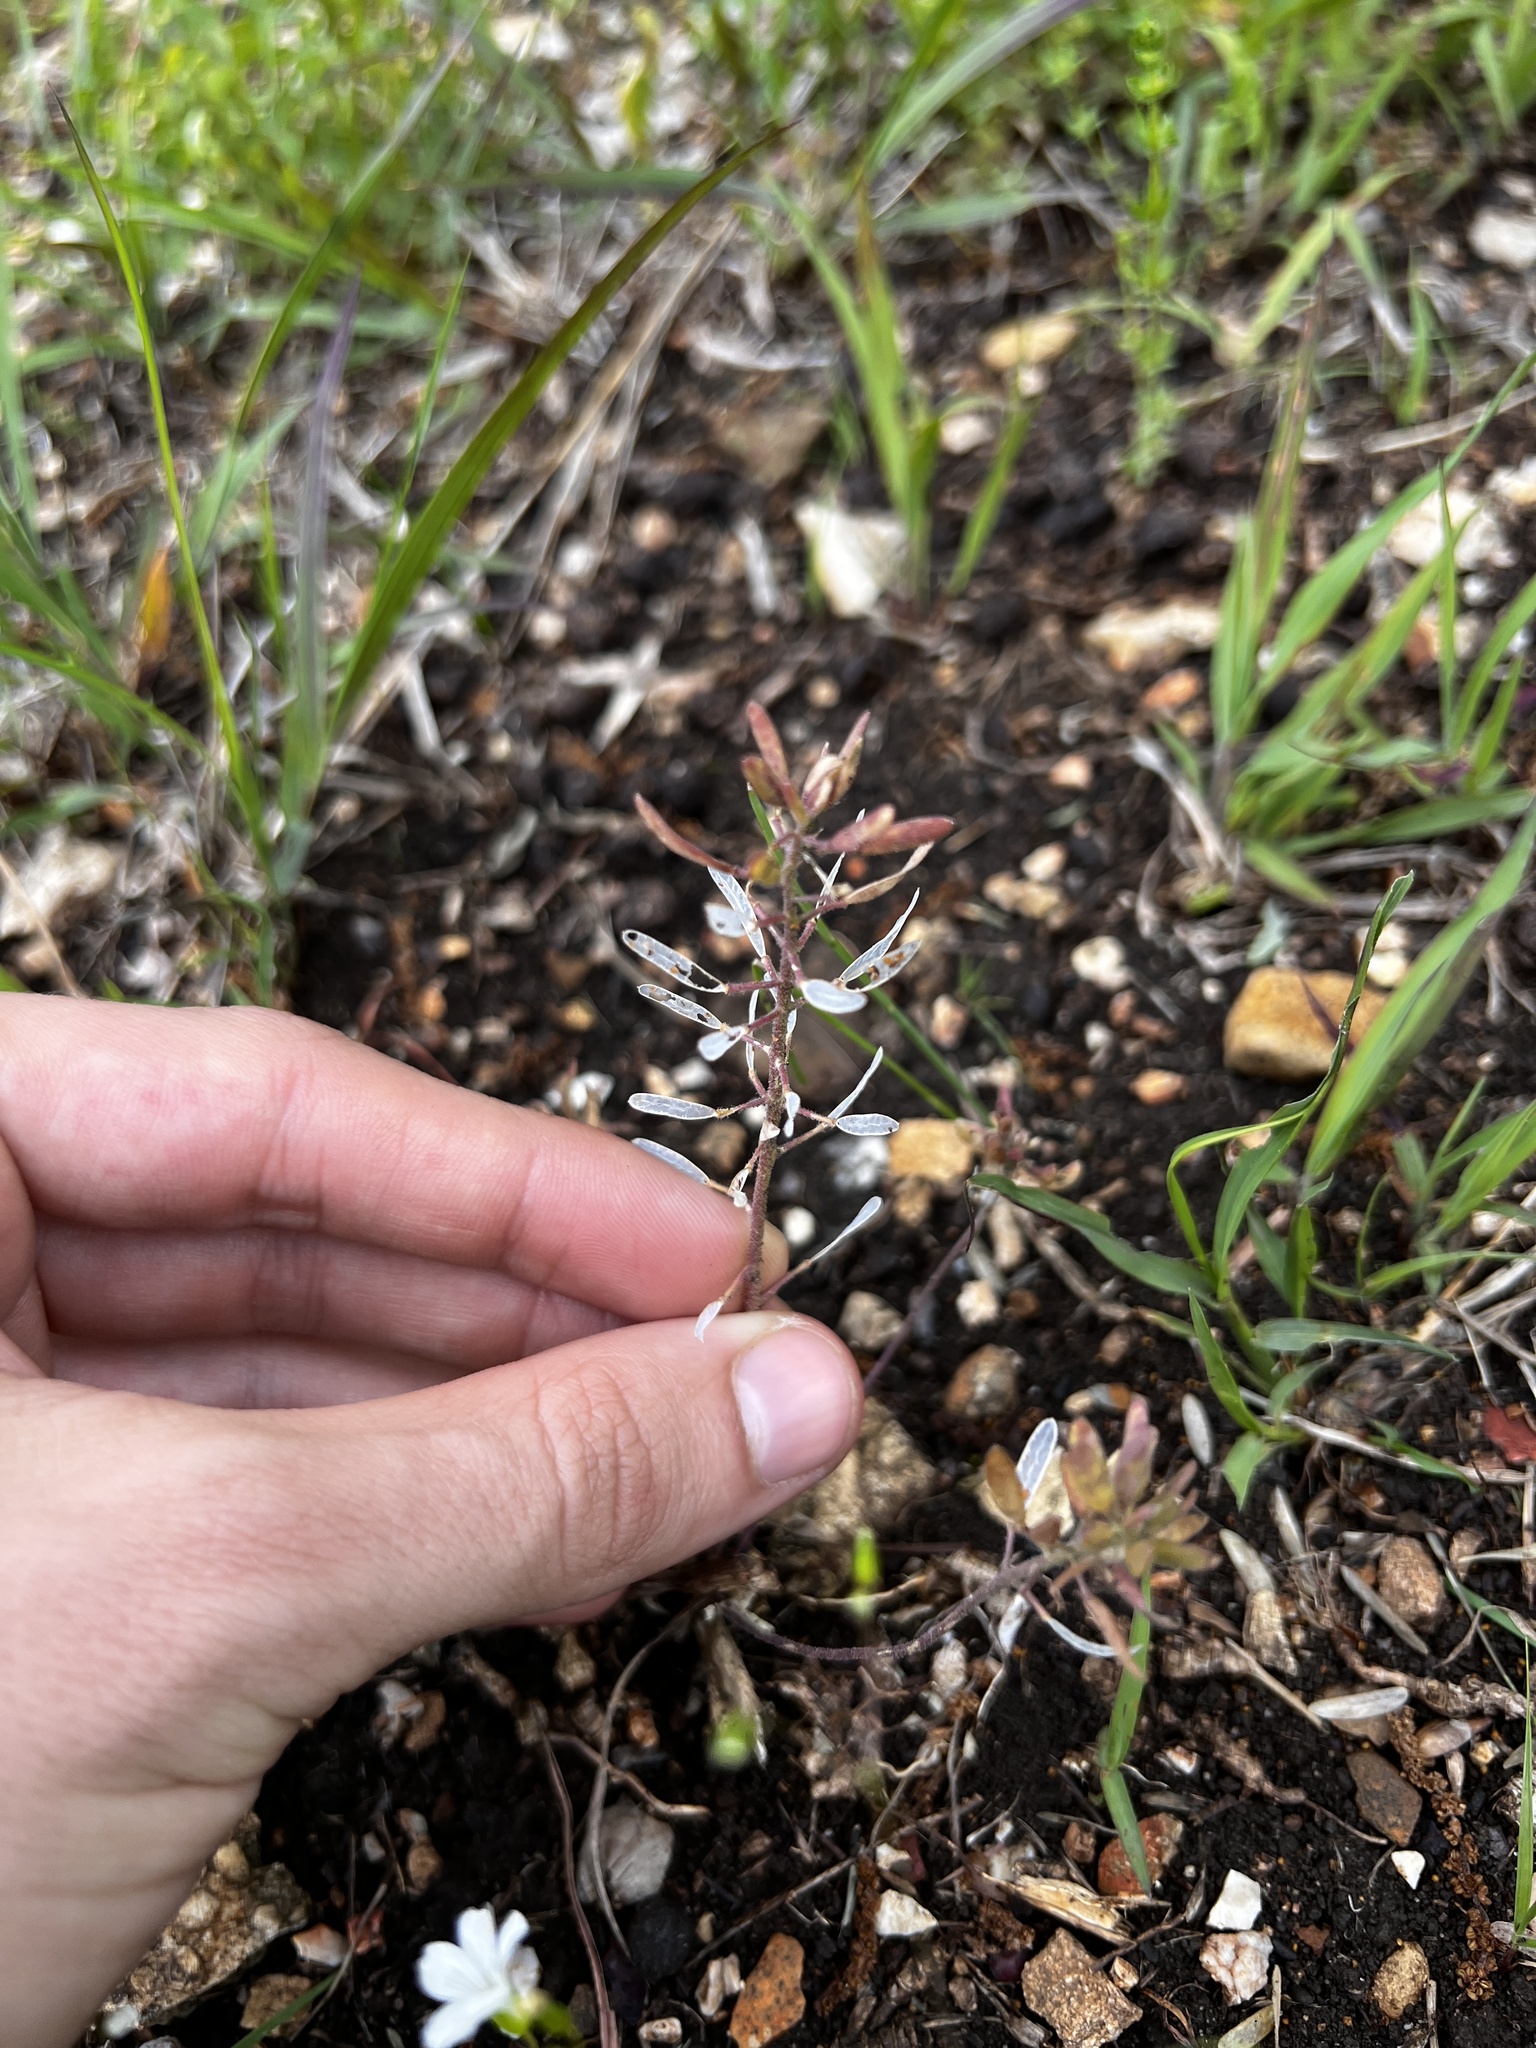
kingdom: Plantae
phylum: Tracheophyta
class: Magnoliopsida
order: Brassicales
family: Brassicaceae
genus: Tomostima
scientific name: Tomostima cuneifolia
